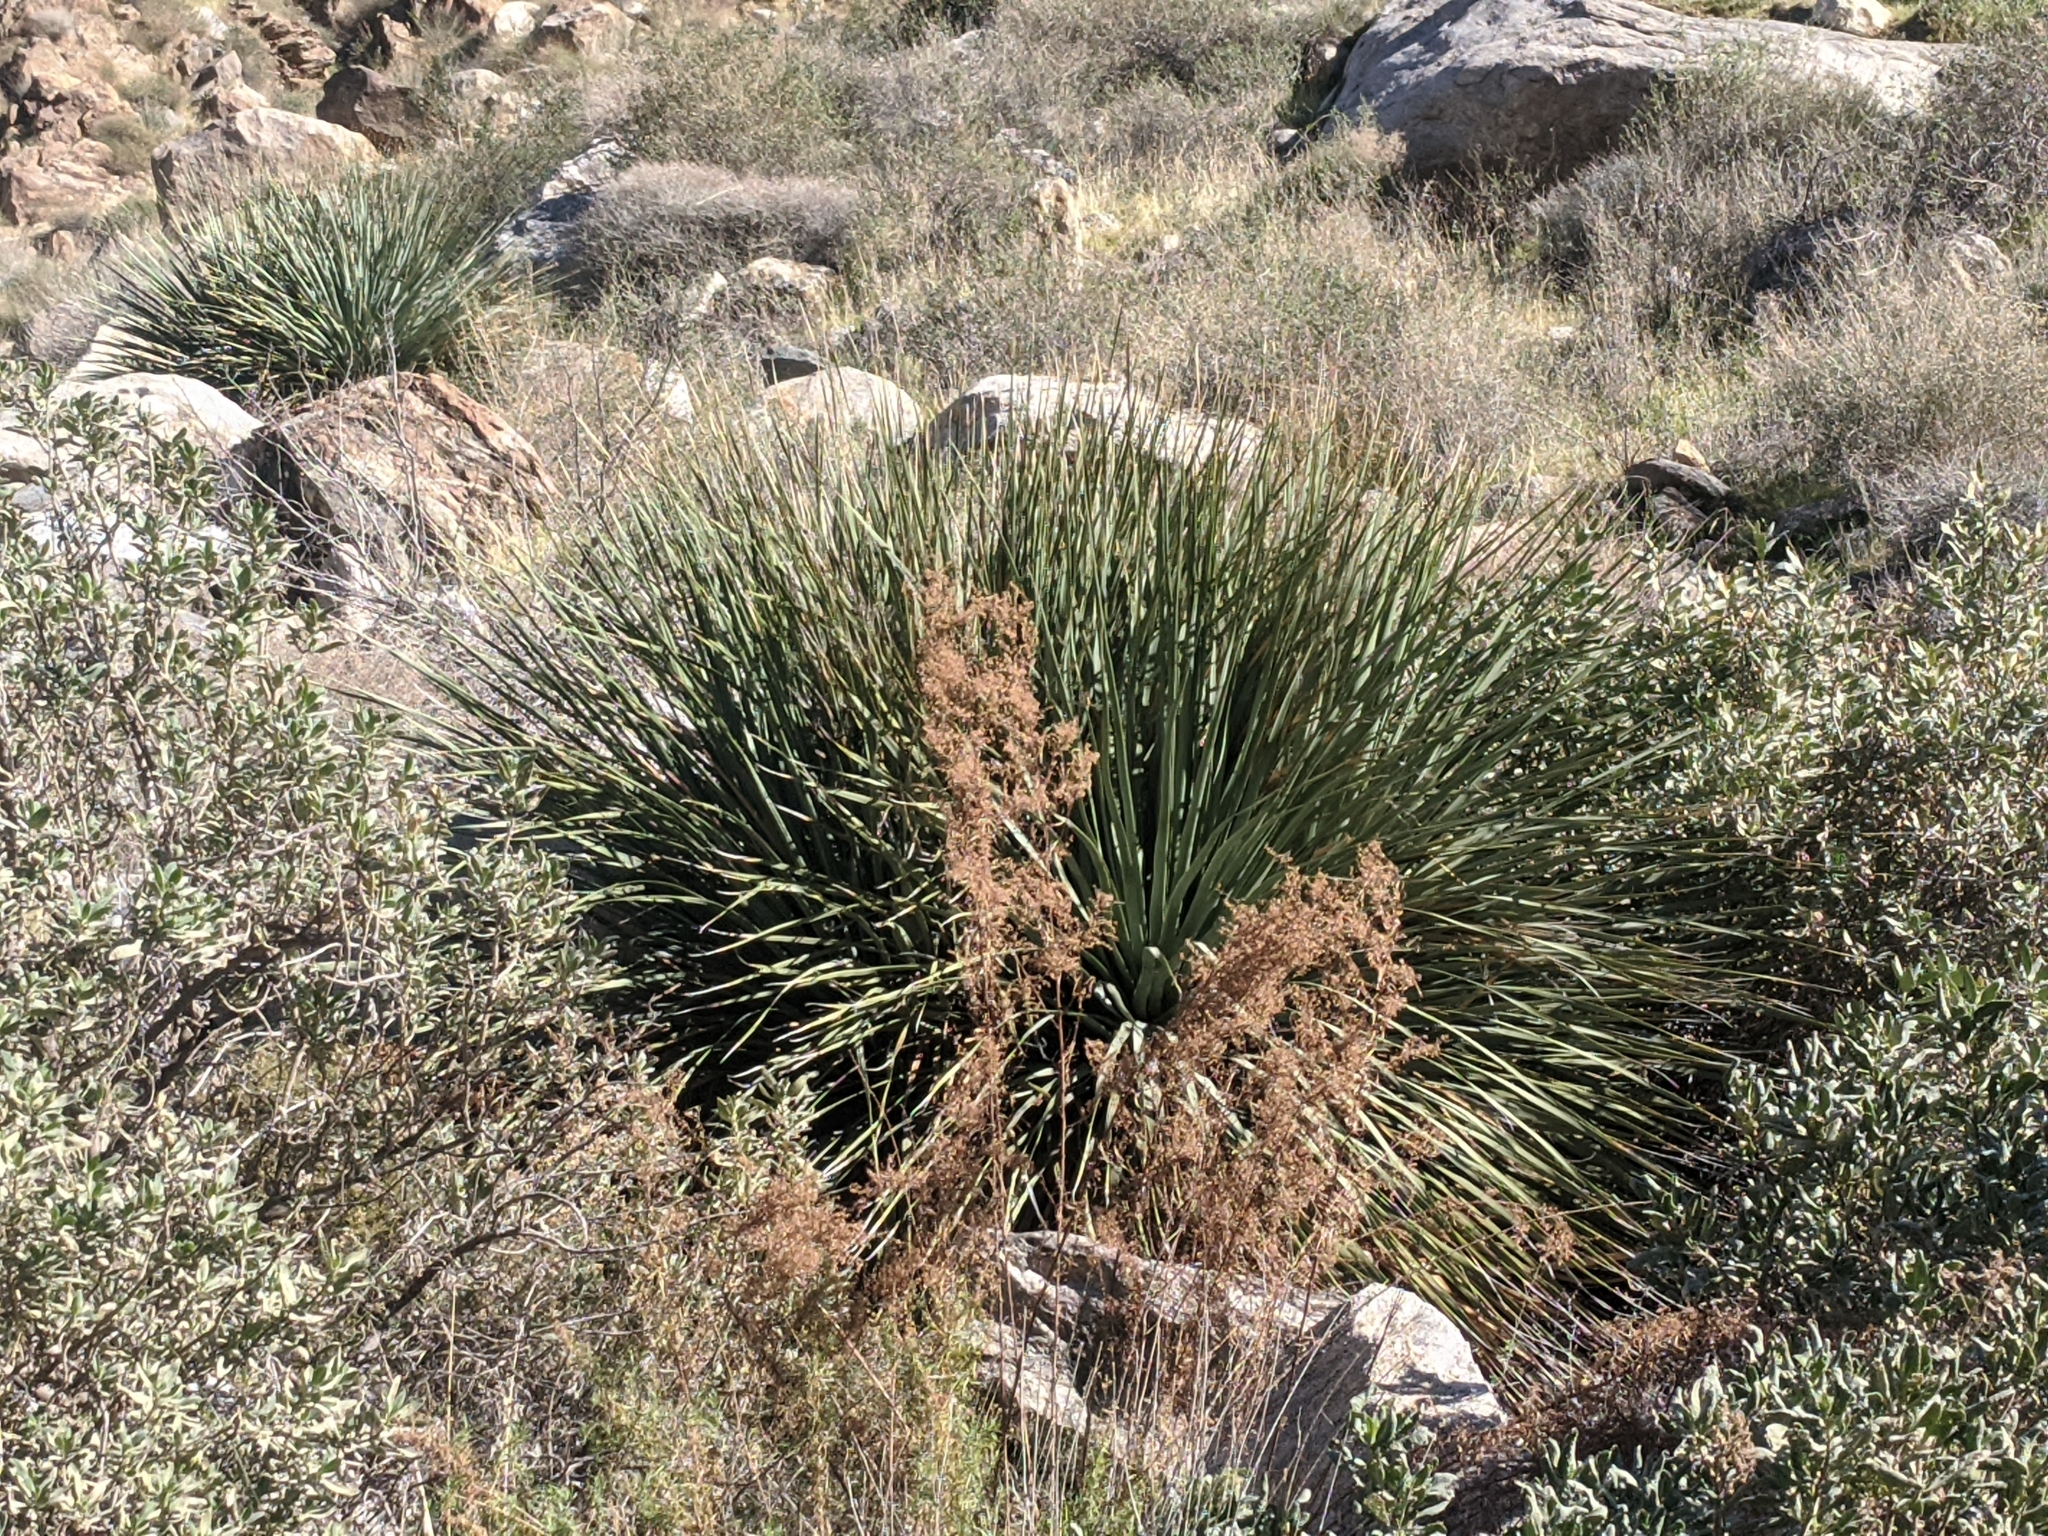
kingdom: Plantae
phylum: Tracheophyta
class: Liliopsida
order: Asparagales
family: Asparagaceae
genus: Nolina
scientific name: Nolina parryi
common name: Parry nolina
